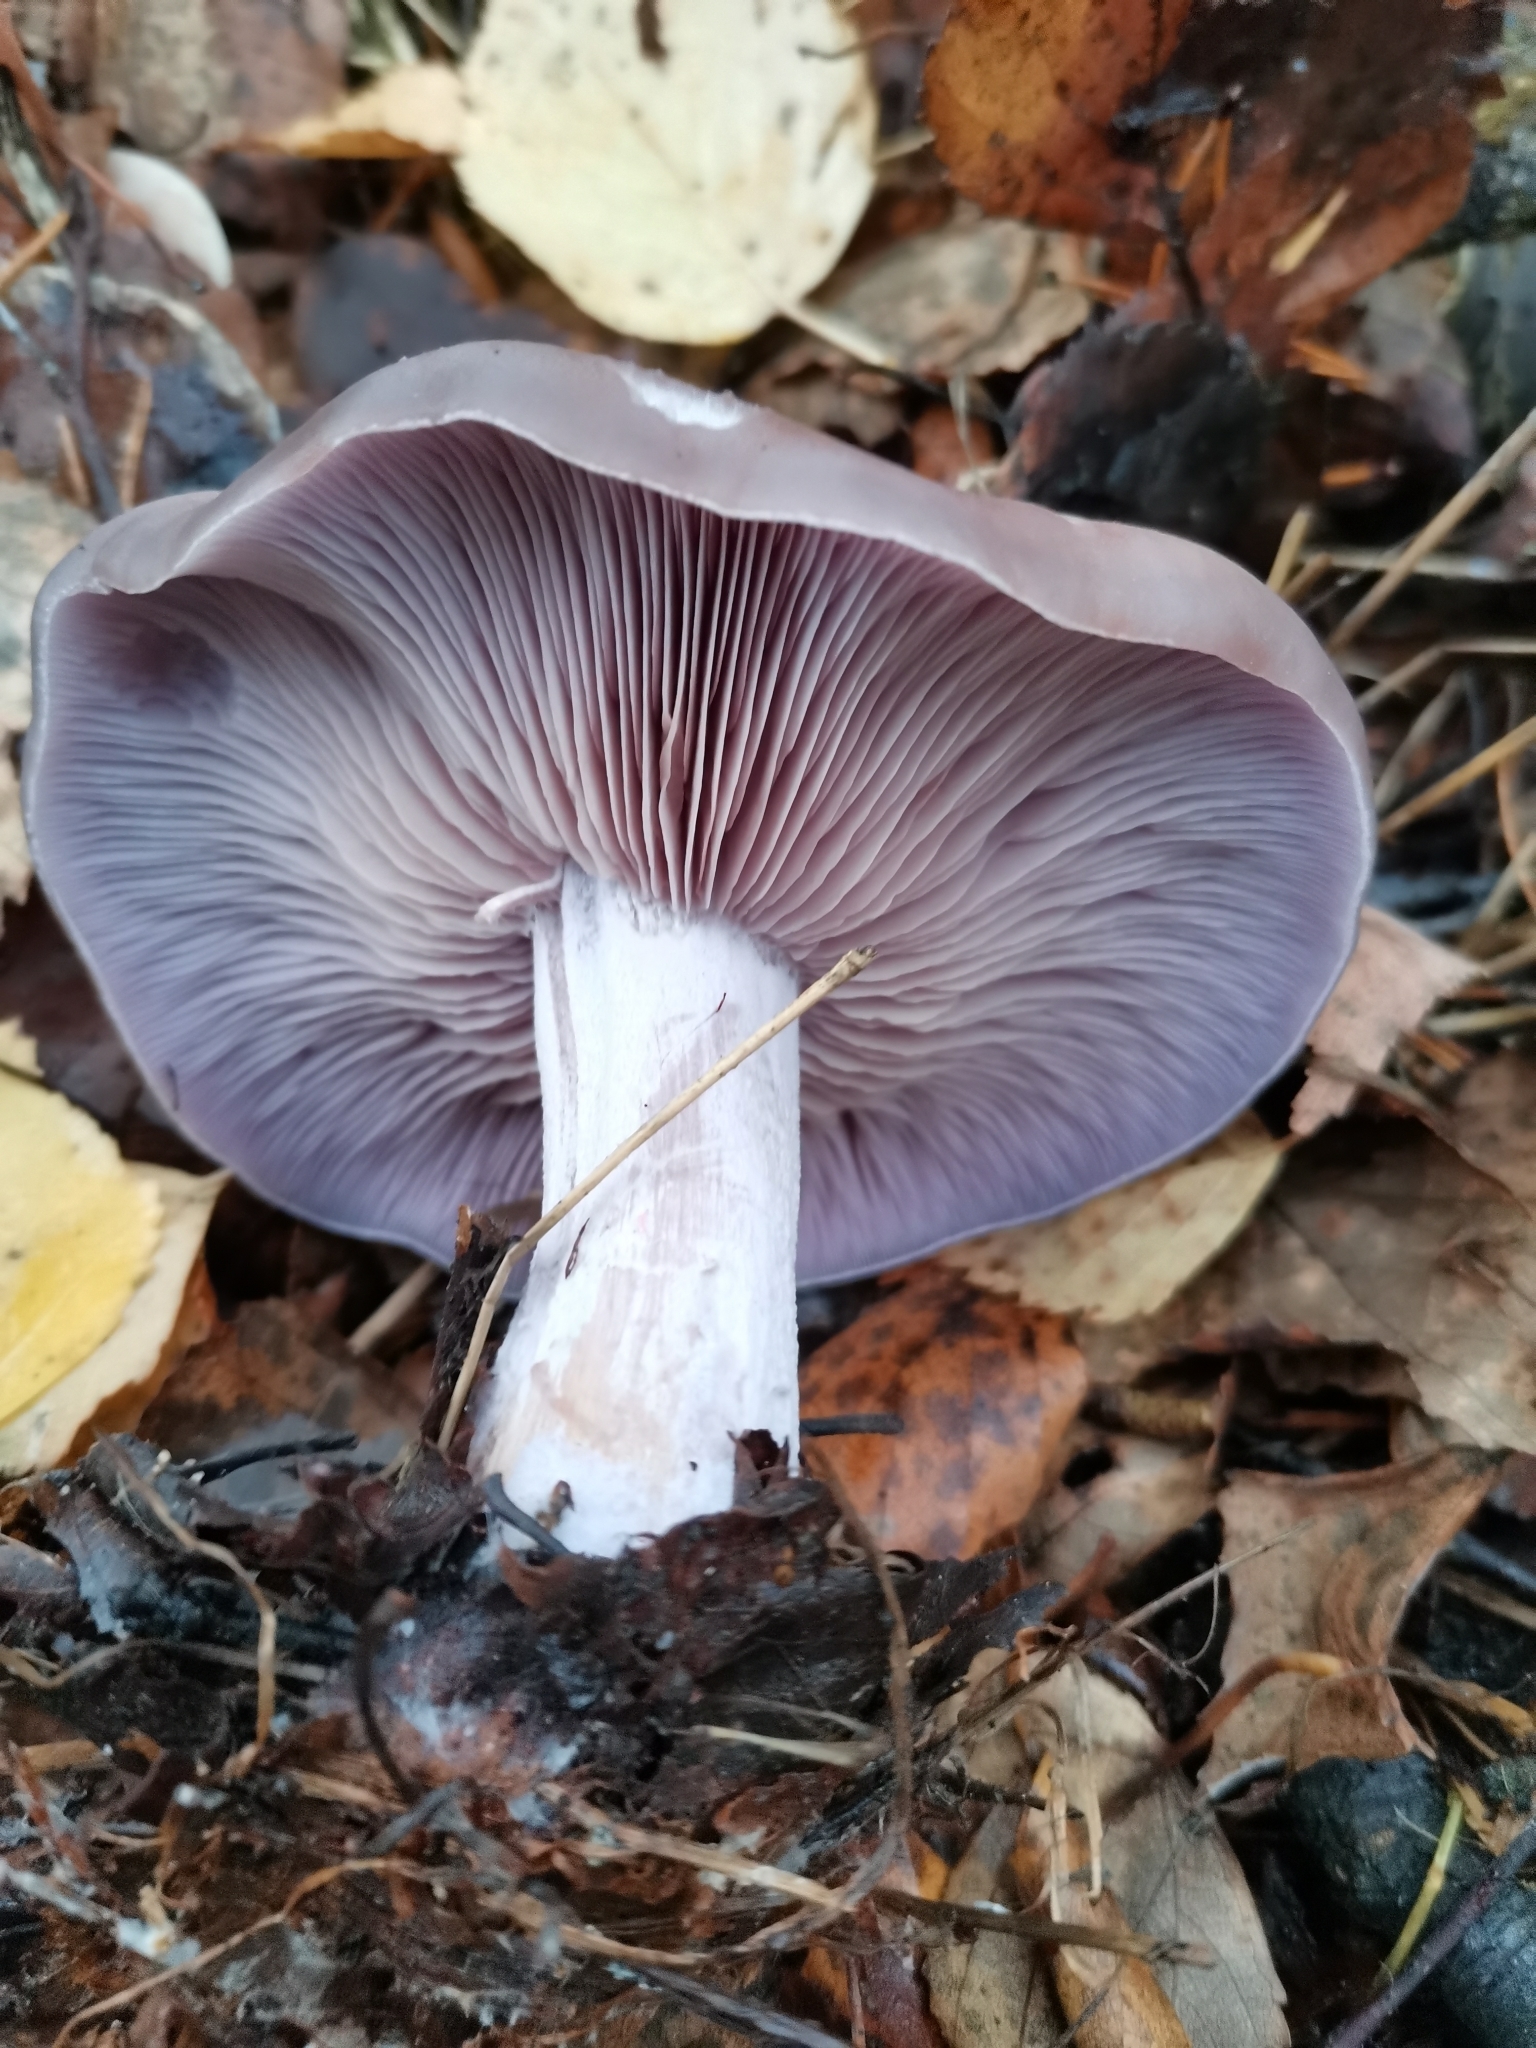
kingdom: Fungi
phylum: Basidiomycota
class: Agaricomycetes
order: Agaricales
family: Tricholomataceae
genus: Collybia
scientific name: Collybia
